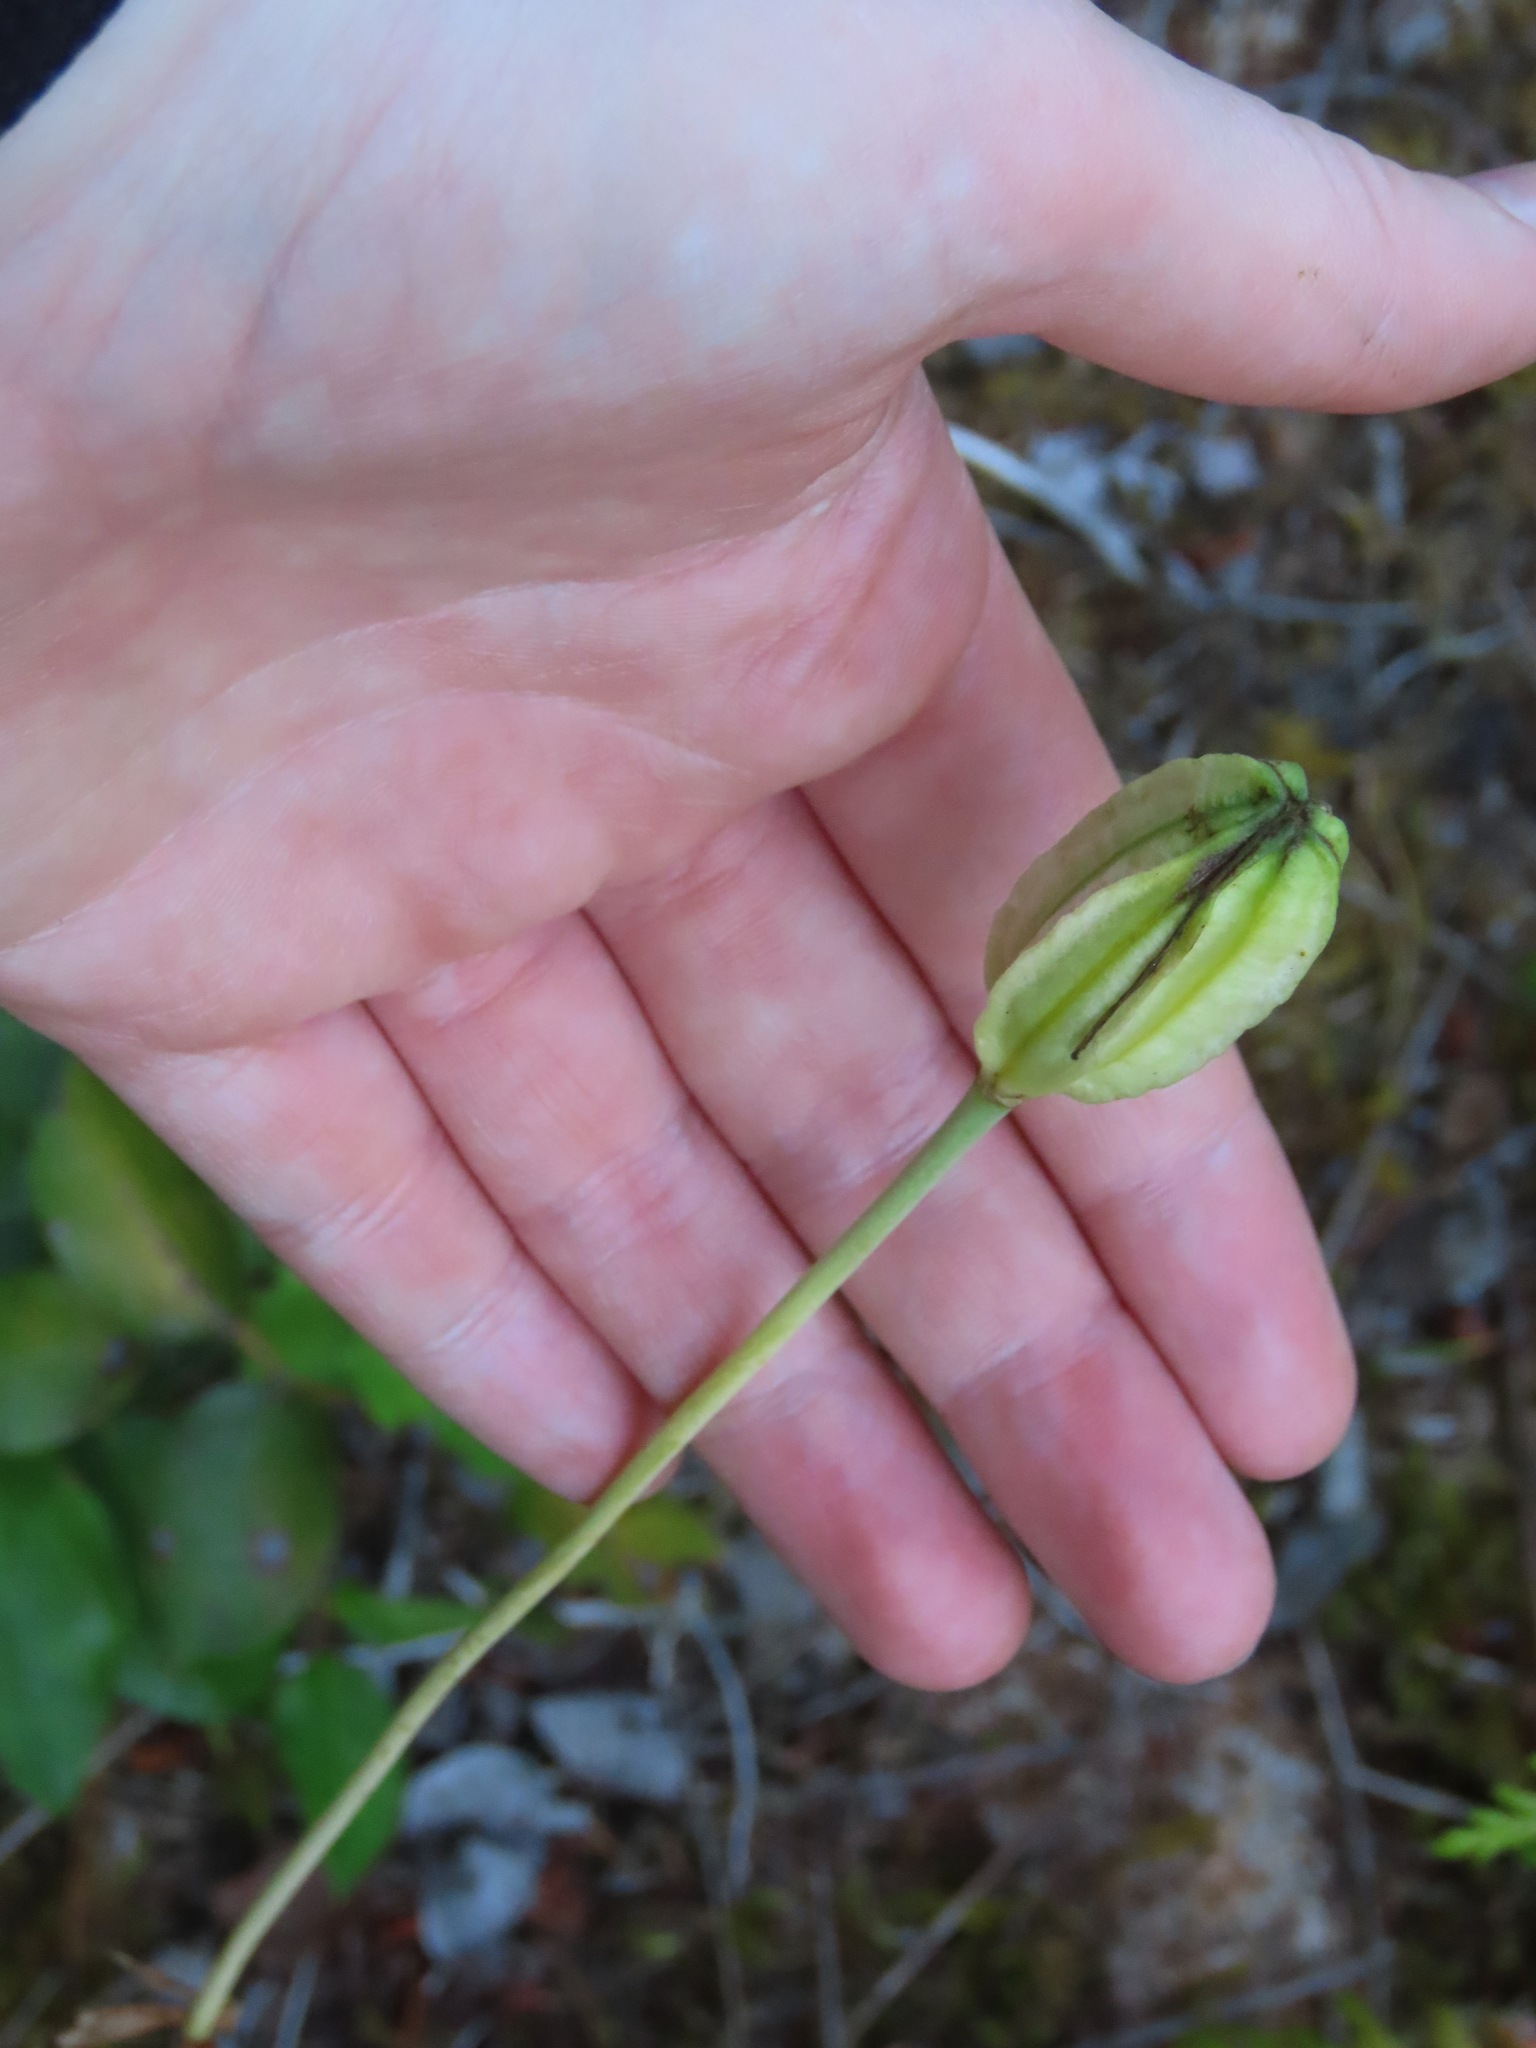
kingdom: Plantae
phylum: Tracheophyta
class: Liliopsida
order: Liliales
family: Liliaceae
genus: Lilium
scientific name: Lilium columbianum
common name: Columbia lily
